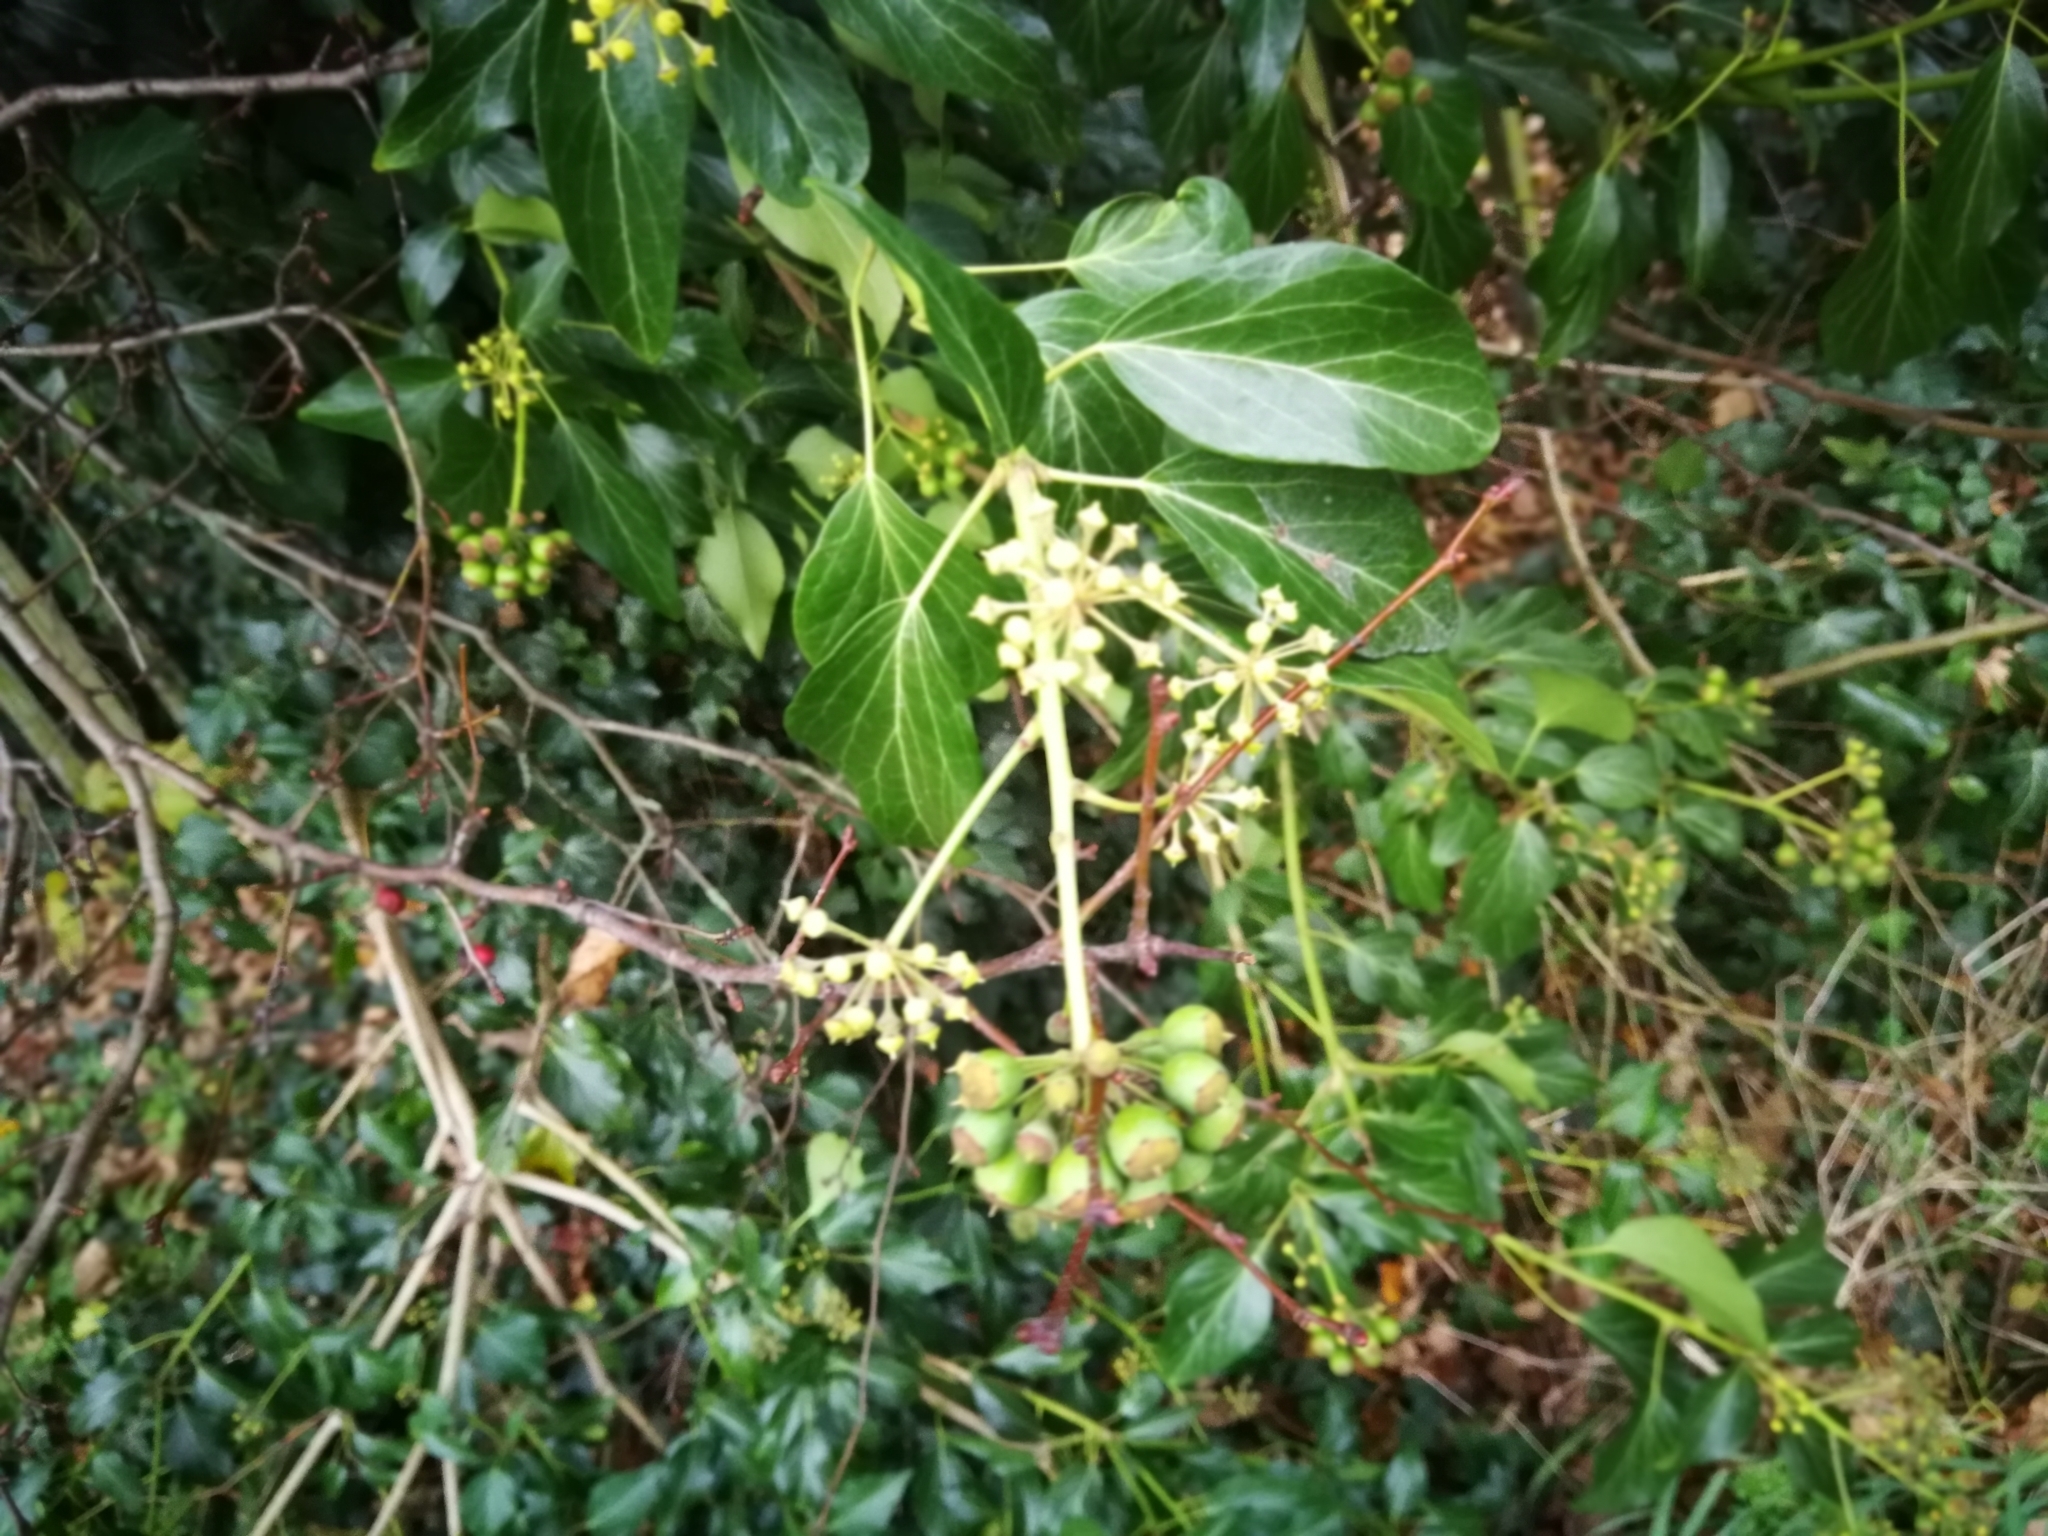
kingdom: Plantae
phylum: Tracheophyta
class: Magnoliopsida
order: Apiales
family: Araliaceae
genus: Hedera
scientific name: Hedera helix
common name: Ivy
